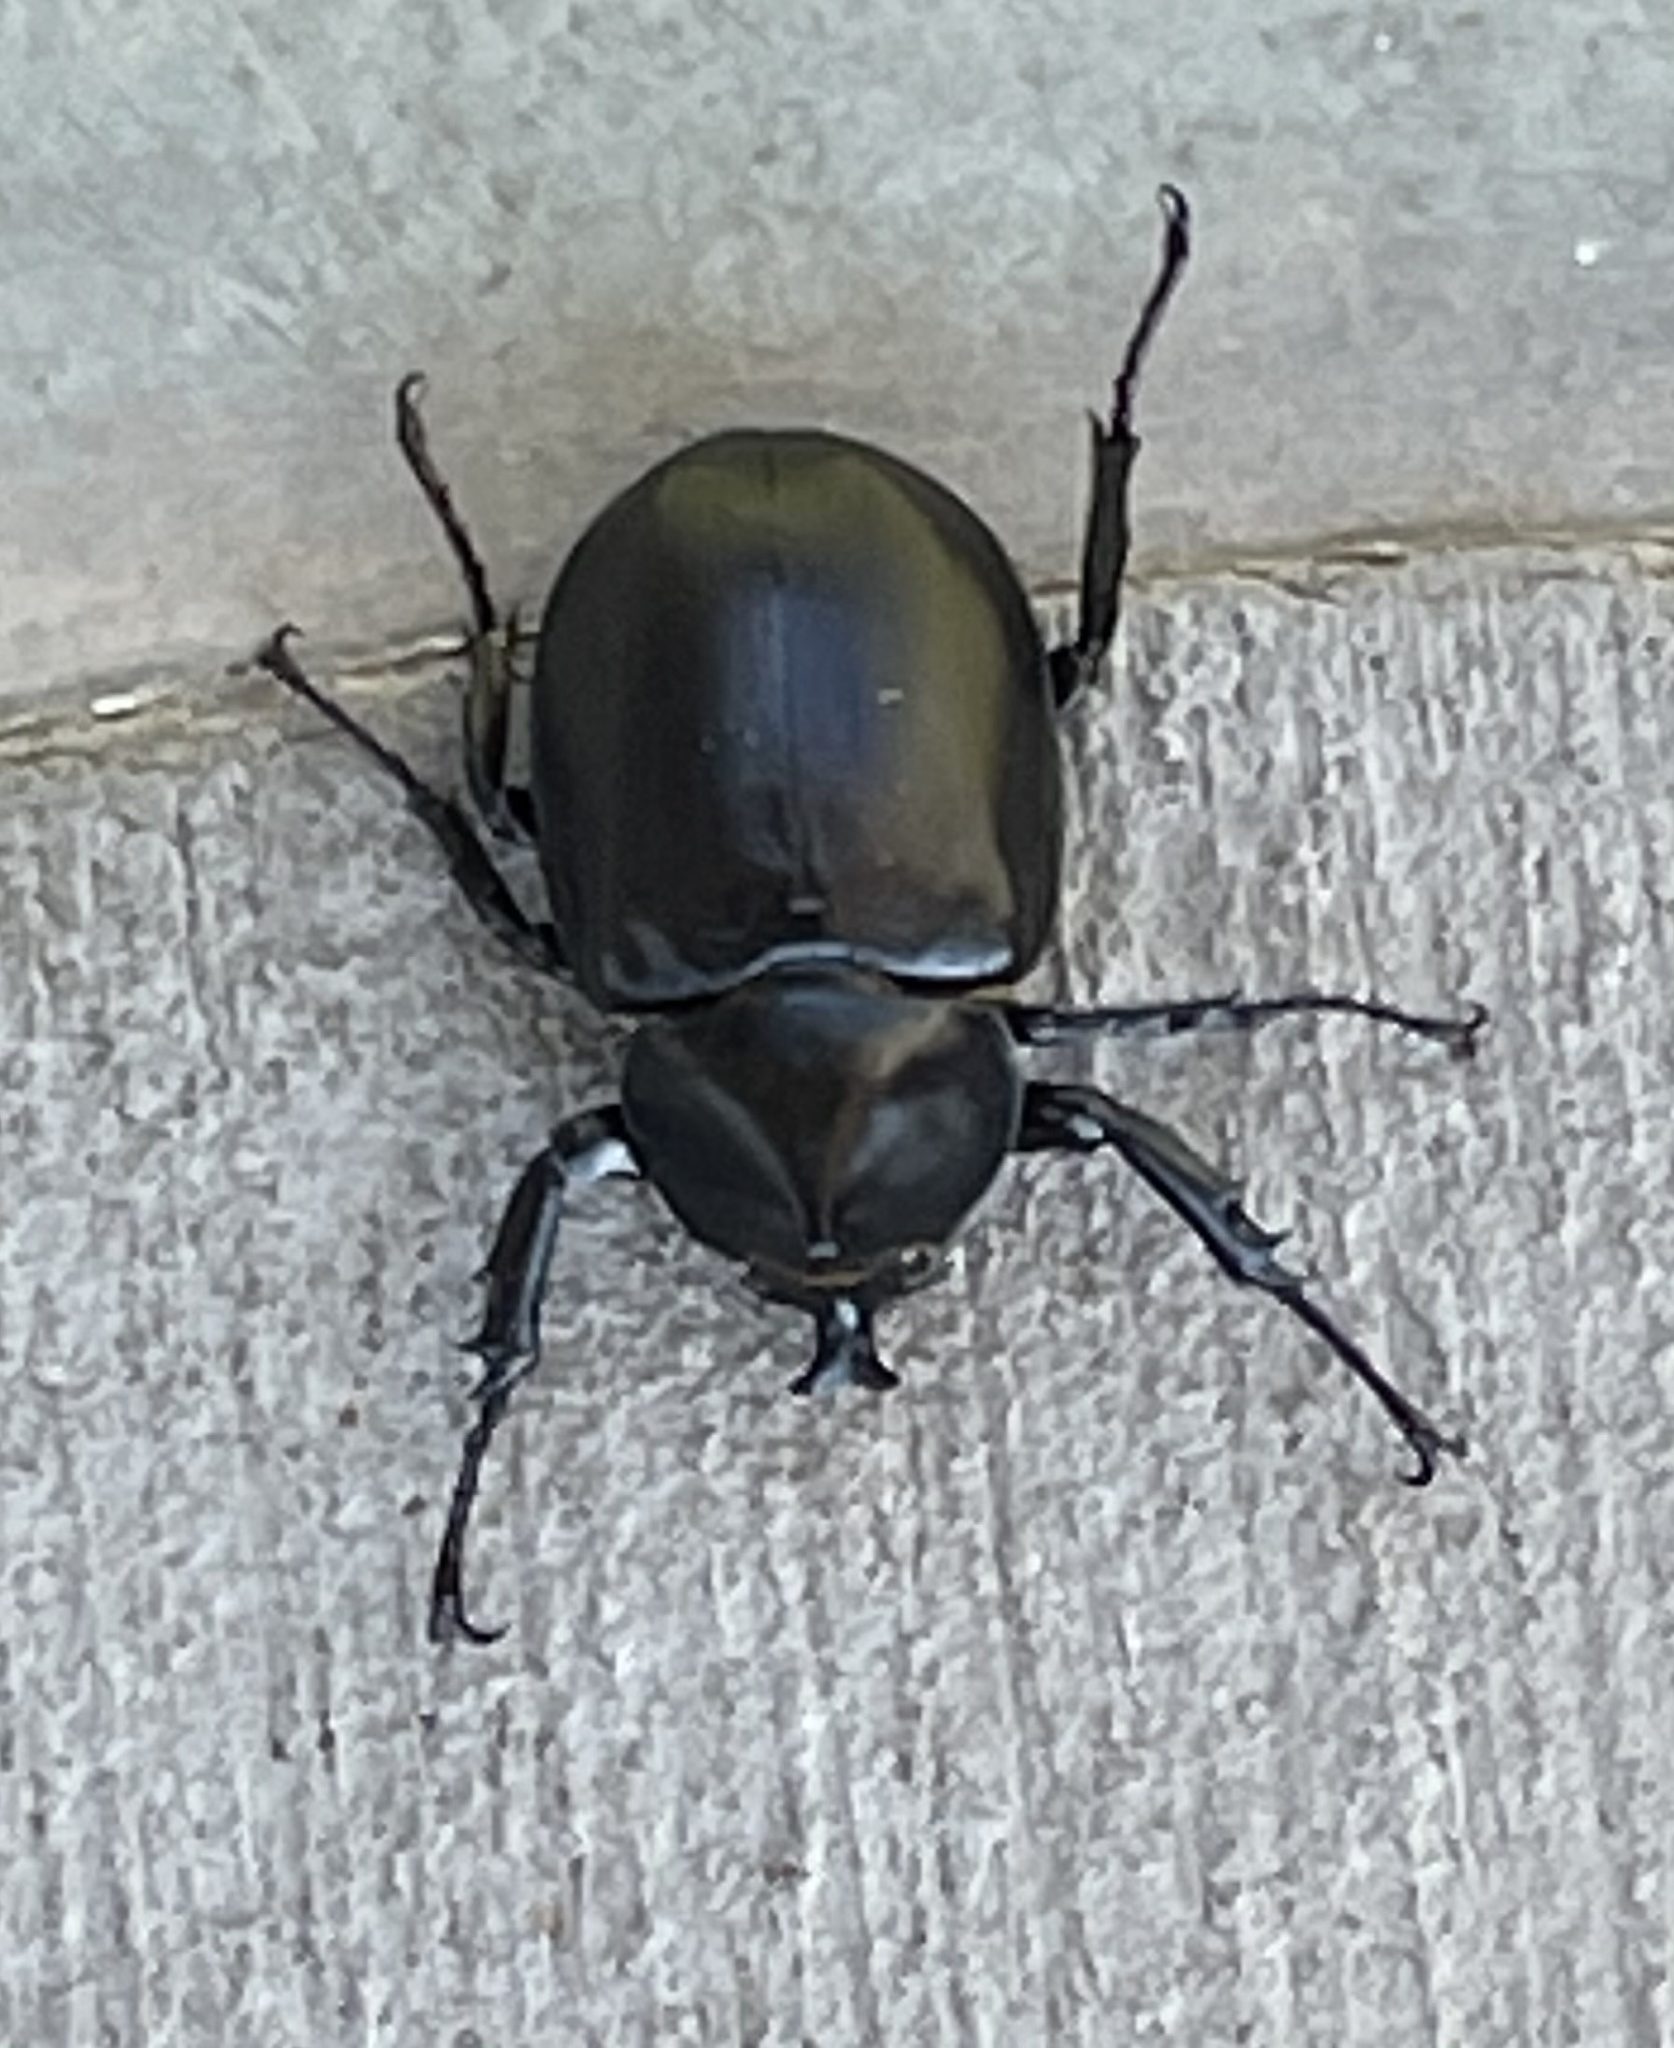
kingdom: Animalia
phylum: Arthropoda
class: Insecta
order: Coleoptera
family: Scarabaeidae
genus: Xylotrupes
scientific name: Xylotrupes australicus
